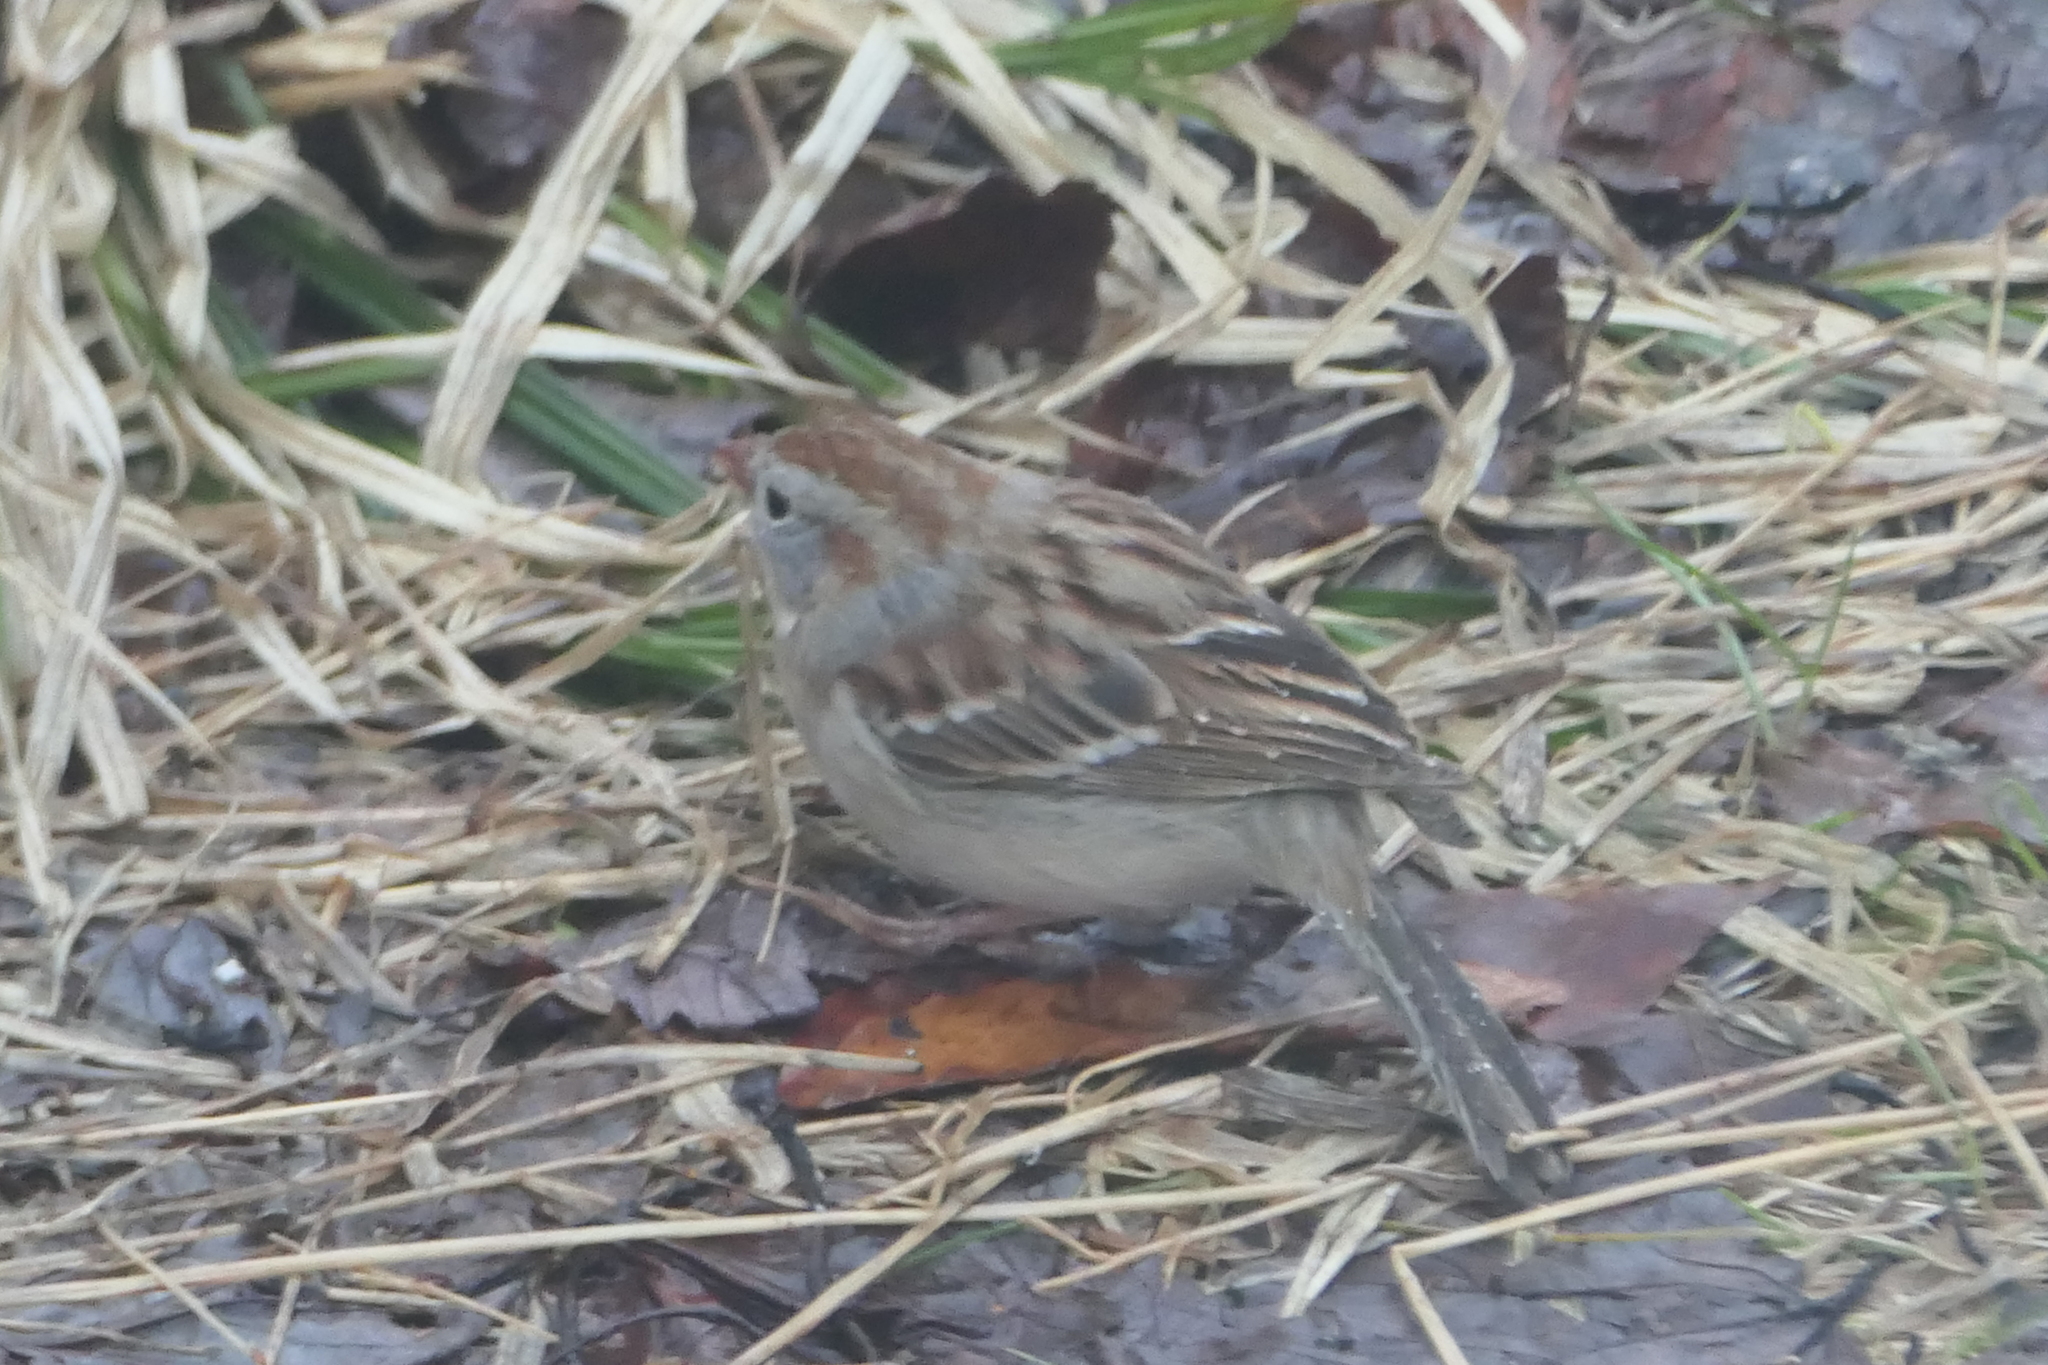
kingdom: Animalia
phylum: Chordata
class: Aves
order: Passeriformes
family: Passerellidae
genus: Spizella
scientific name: Spizella pusilla
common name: Field sparrow
